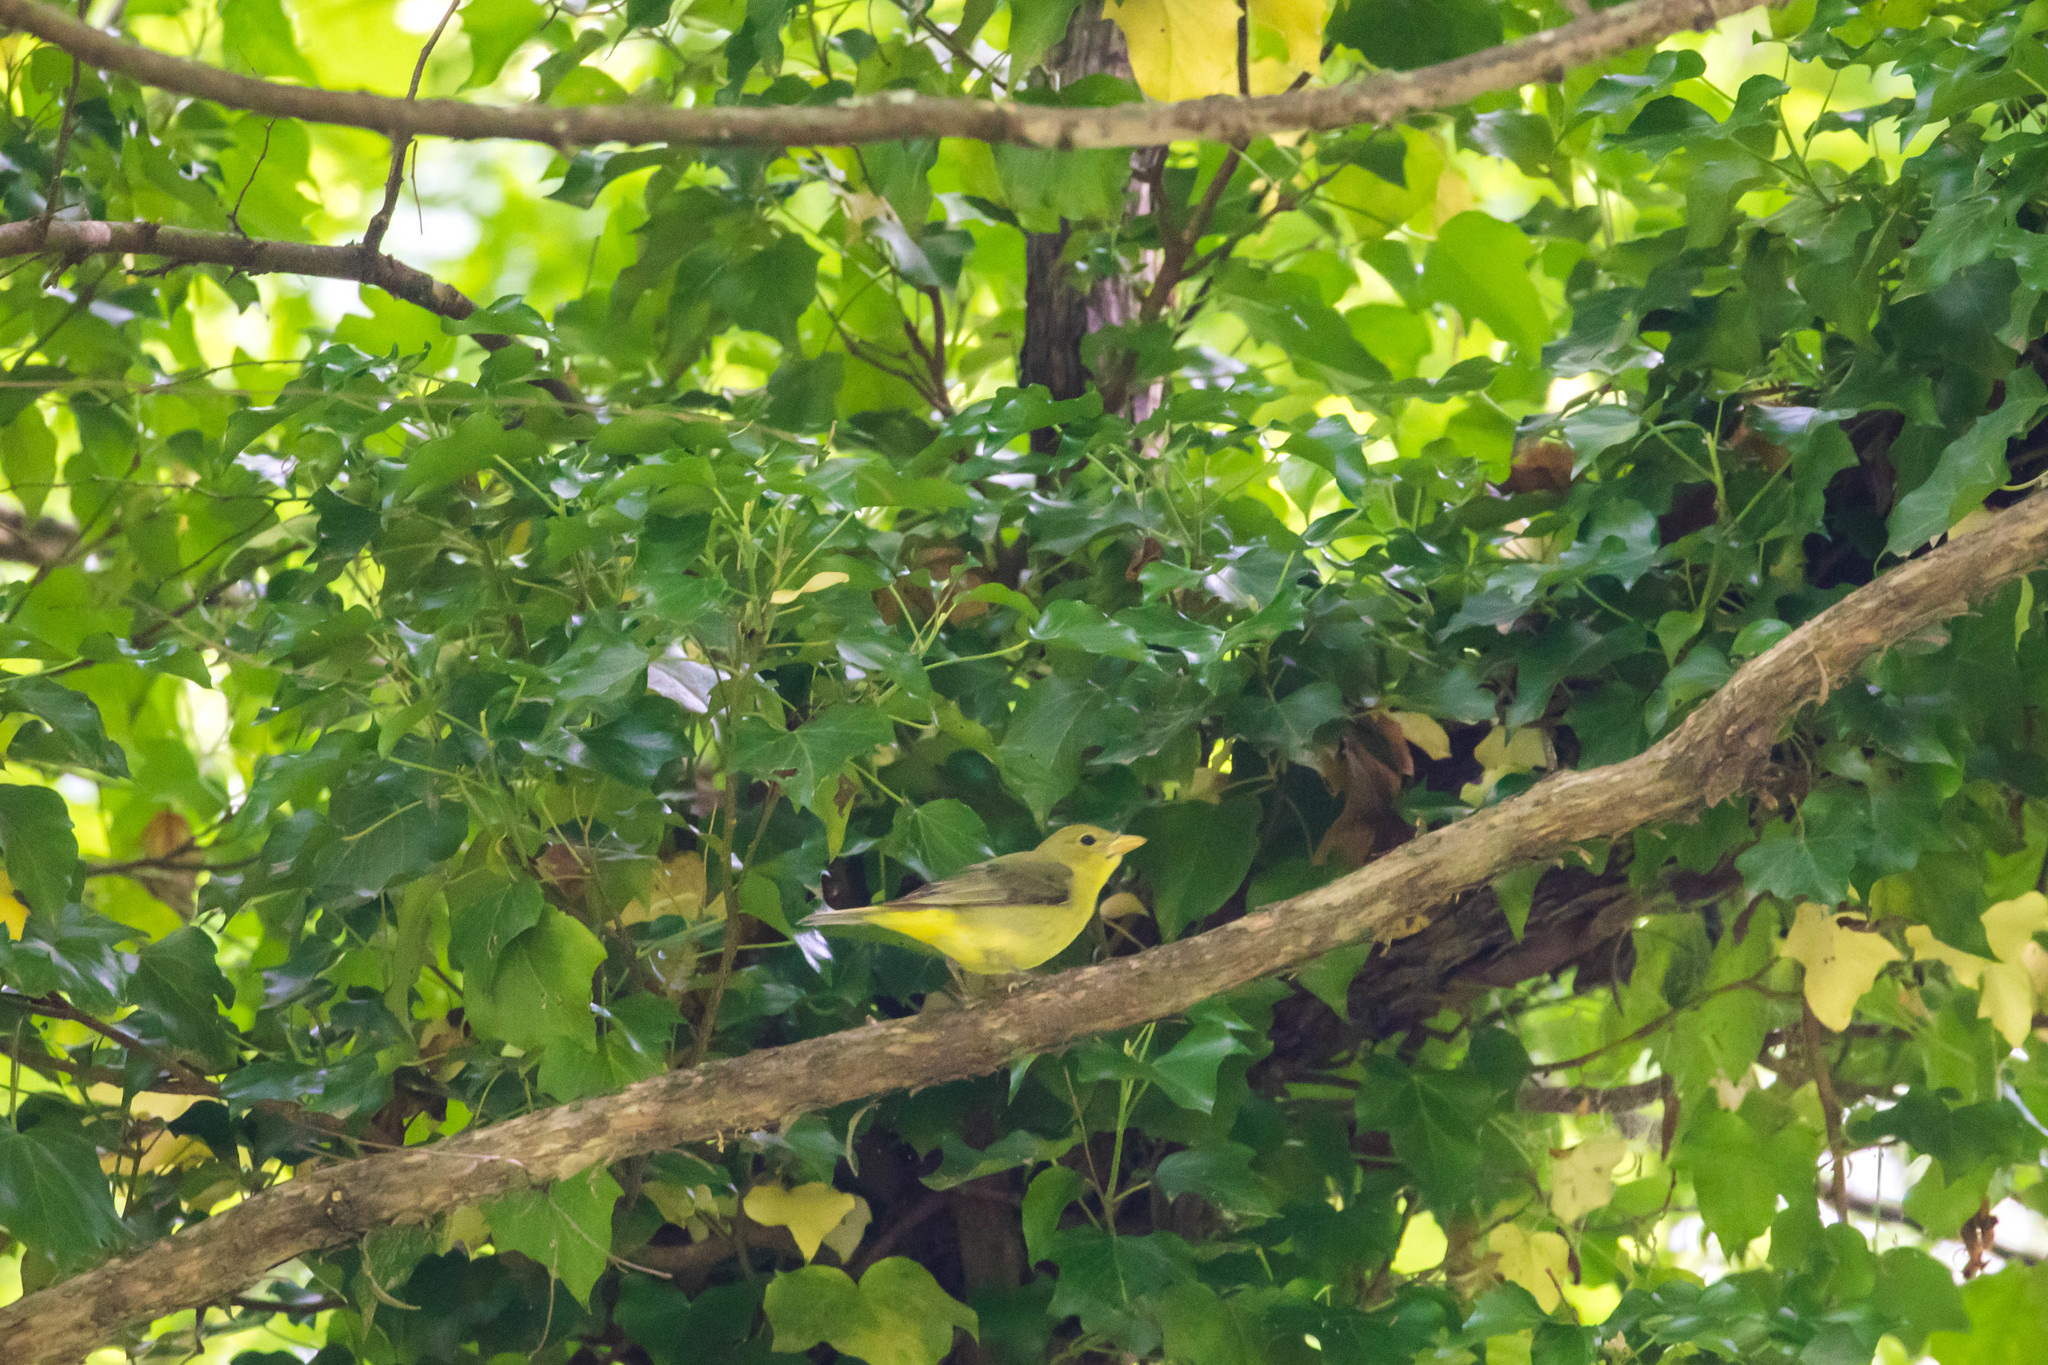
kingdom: Animalia
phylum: Chordata
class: Aves
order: Passeriformes
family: Cardinalidae
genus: Piranga
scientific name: Piranga olivacea
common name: Scarlet tanager
